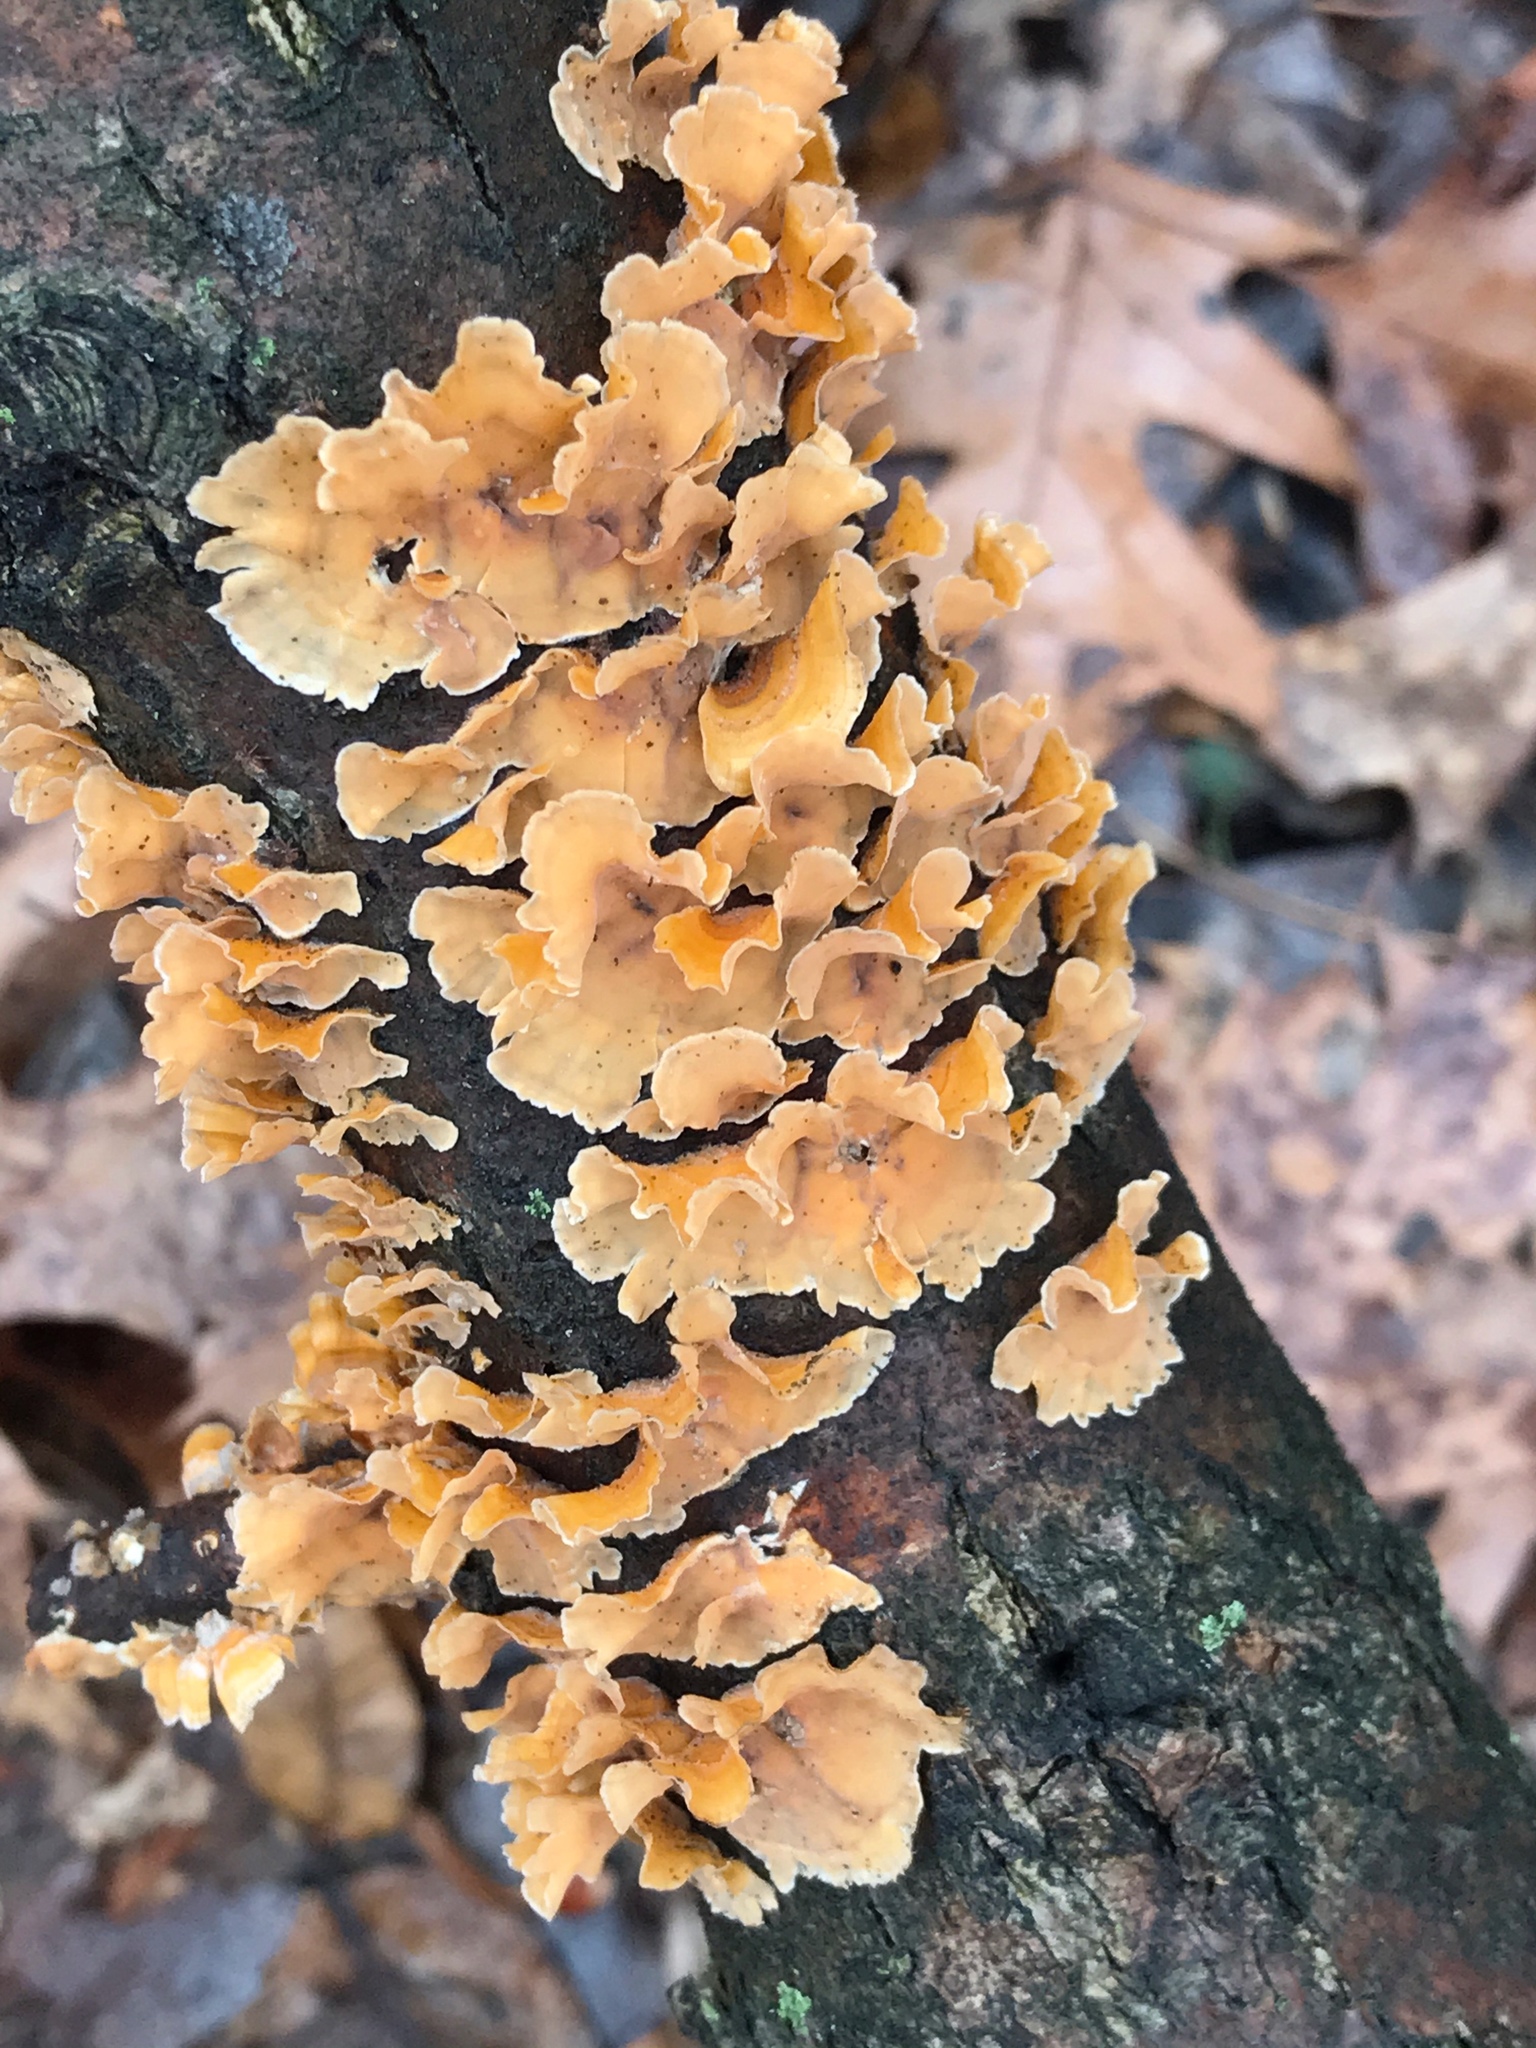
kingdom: Fungi
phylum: Basidiomycota
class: Agaricomycetes
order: Russulales
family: Stereaceae
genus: Stereum
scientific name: Stereum complicatum
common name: Crowded parchment
